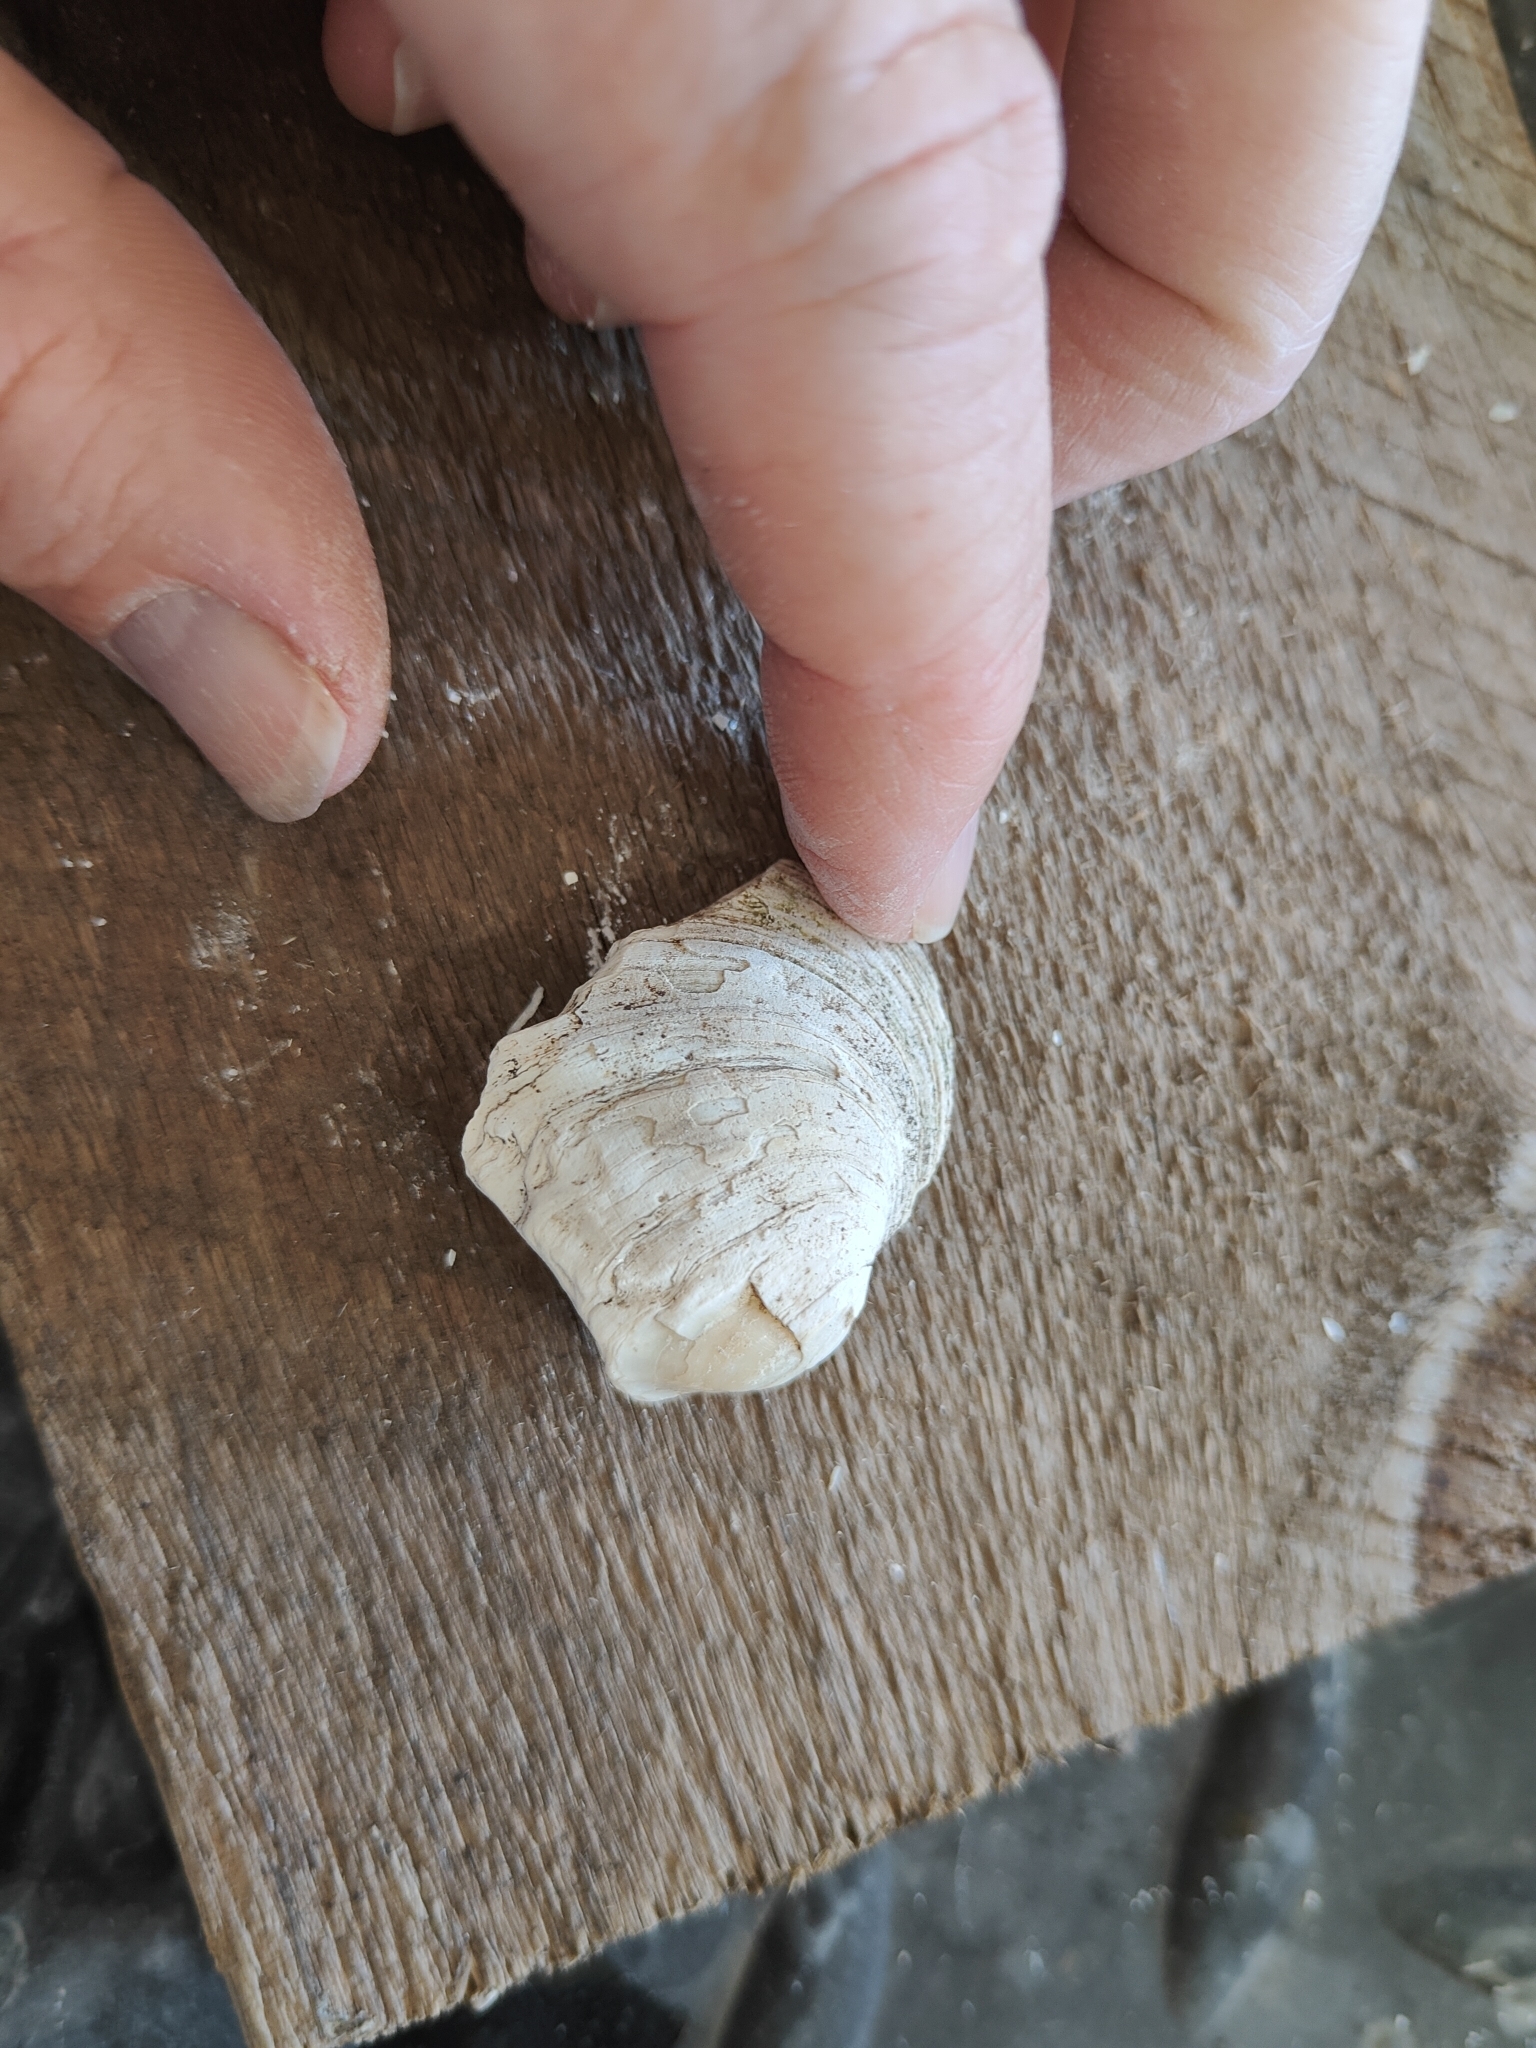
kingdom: Animalia
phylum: Mollusca
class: Bivalvia
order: Unionida
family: Unionidae
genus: Amblema
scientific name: Amblema plicata
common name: Threeridge
